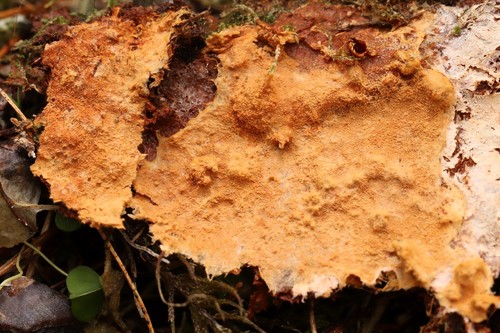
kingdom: Fungi
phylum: Basidiomycota
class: Agaricomycetes
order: Hymenochaetales
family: Hymenochaetaceae
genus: Asterodon
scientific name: Asterodon ferruginosus
